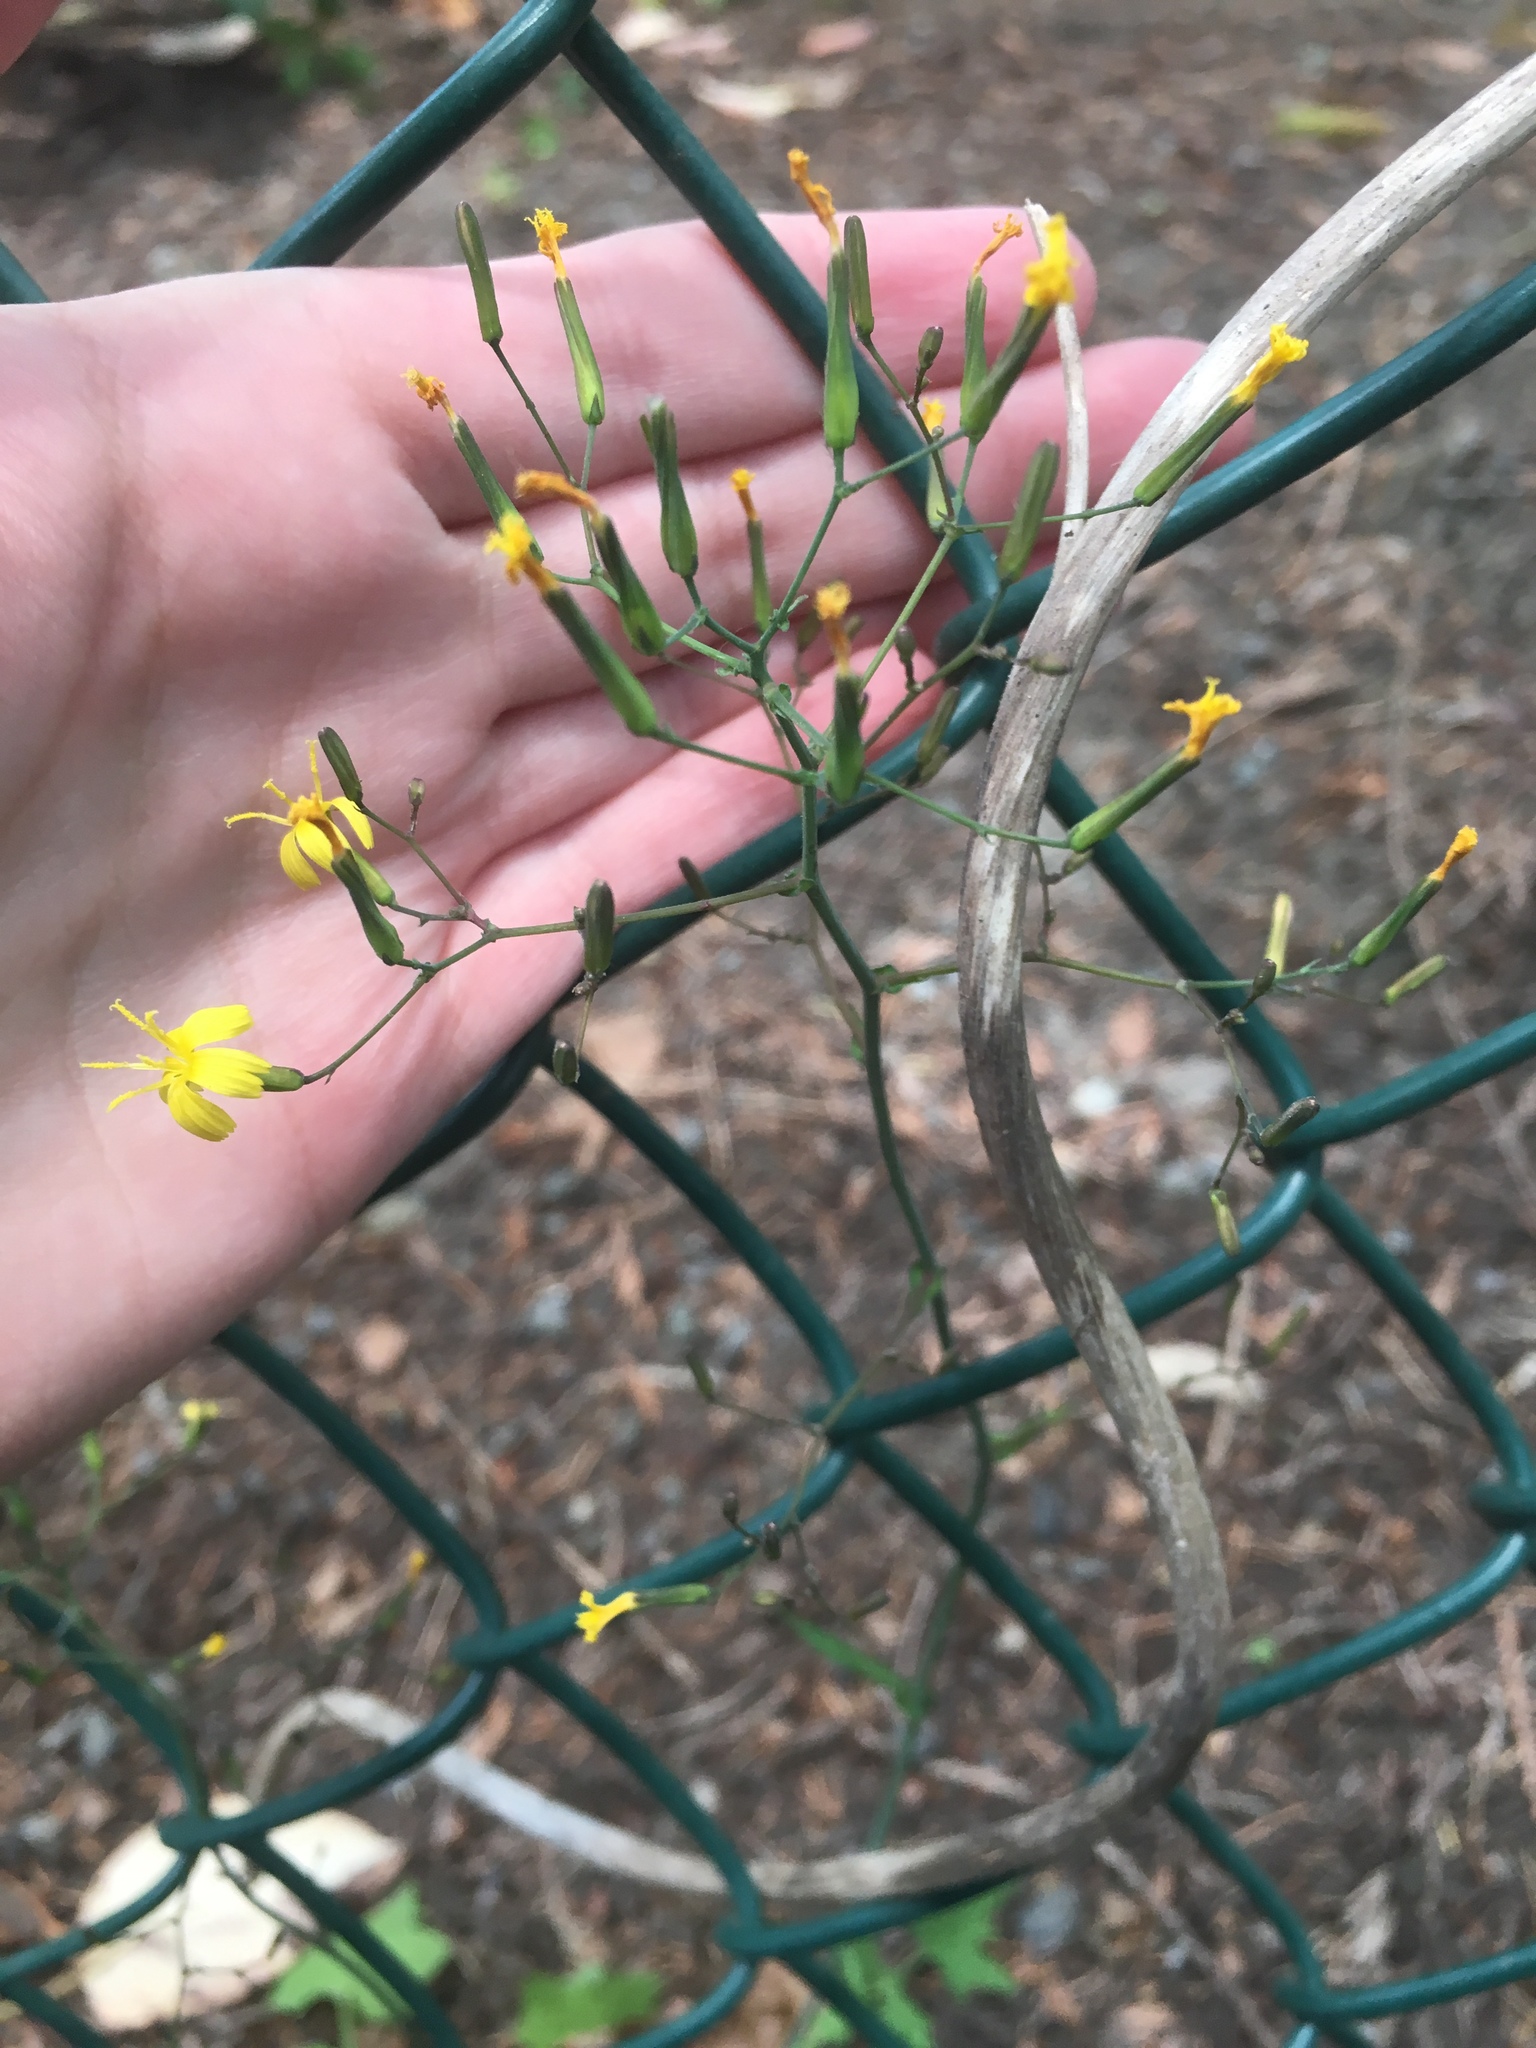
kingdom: Plantae
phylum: Tracheophyta
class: Magnoliopsida
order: Asterales
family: Asteraceae
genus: Mycelis
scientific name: Mycelis muralis
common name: Wall lettuce
